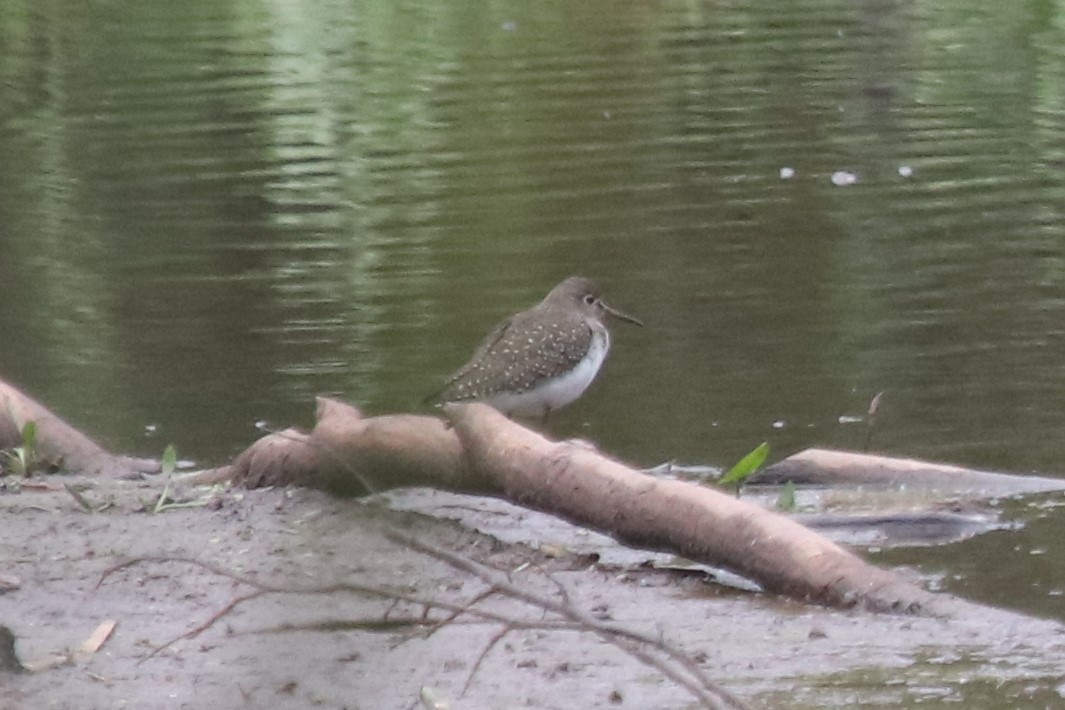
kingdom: Animalia
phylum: Chordata
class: Aves
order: Charadriiformes
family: Scolopacidae
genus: Tringa
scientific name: Tringa solitaria
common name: Solitary sandpiper
